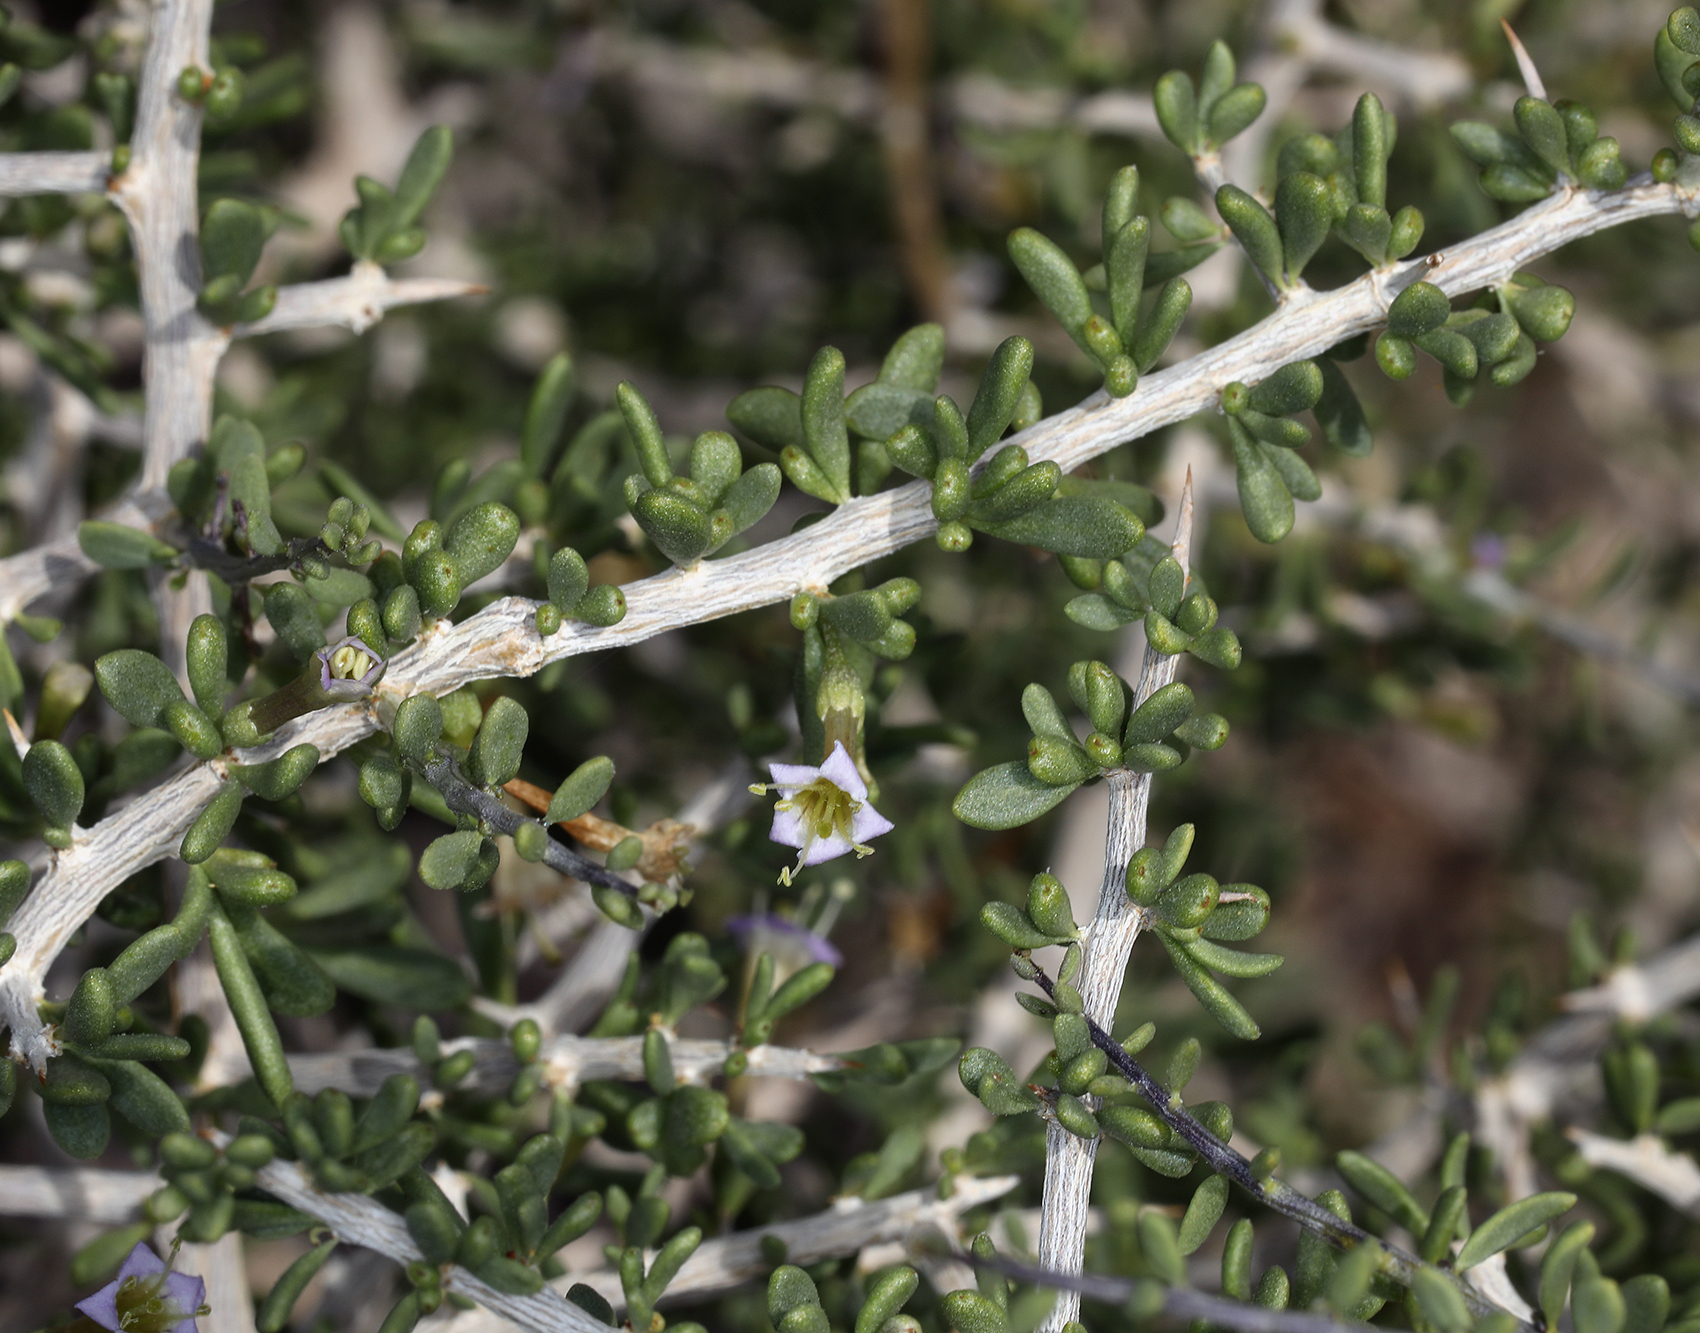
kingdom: Plantae
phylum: Tracheophyta
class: Magnoliopsida
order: Solanales
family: Solanaceae
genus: Lycium
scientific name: Lycium andersonii
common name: Water-jacket
